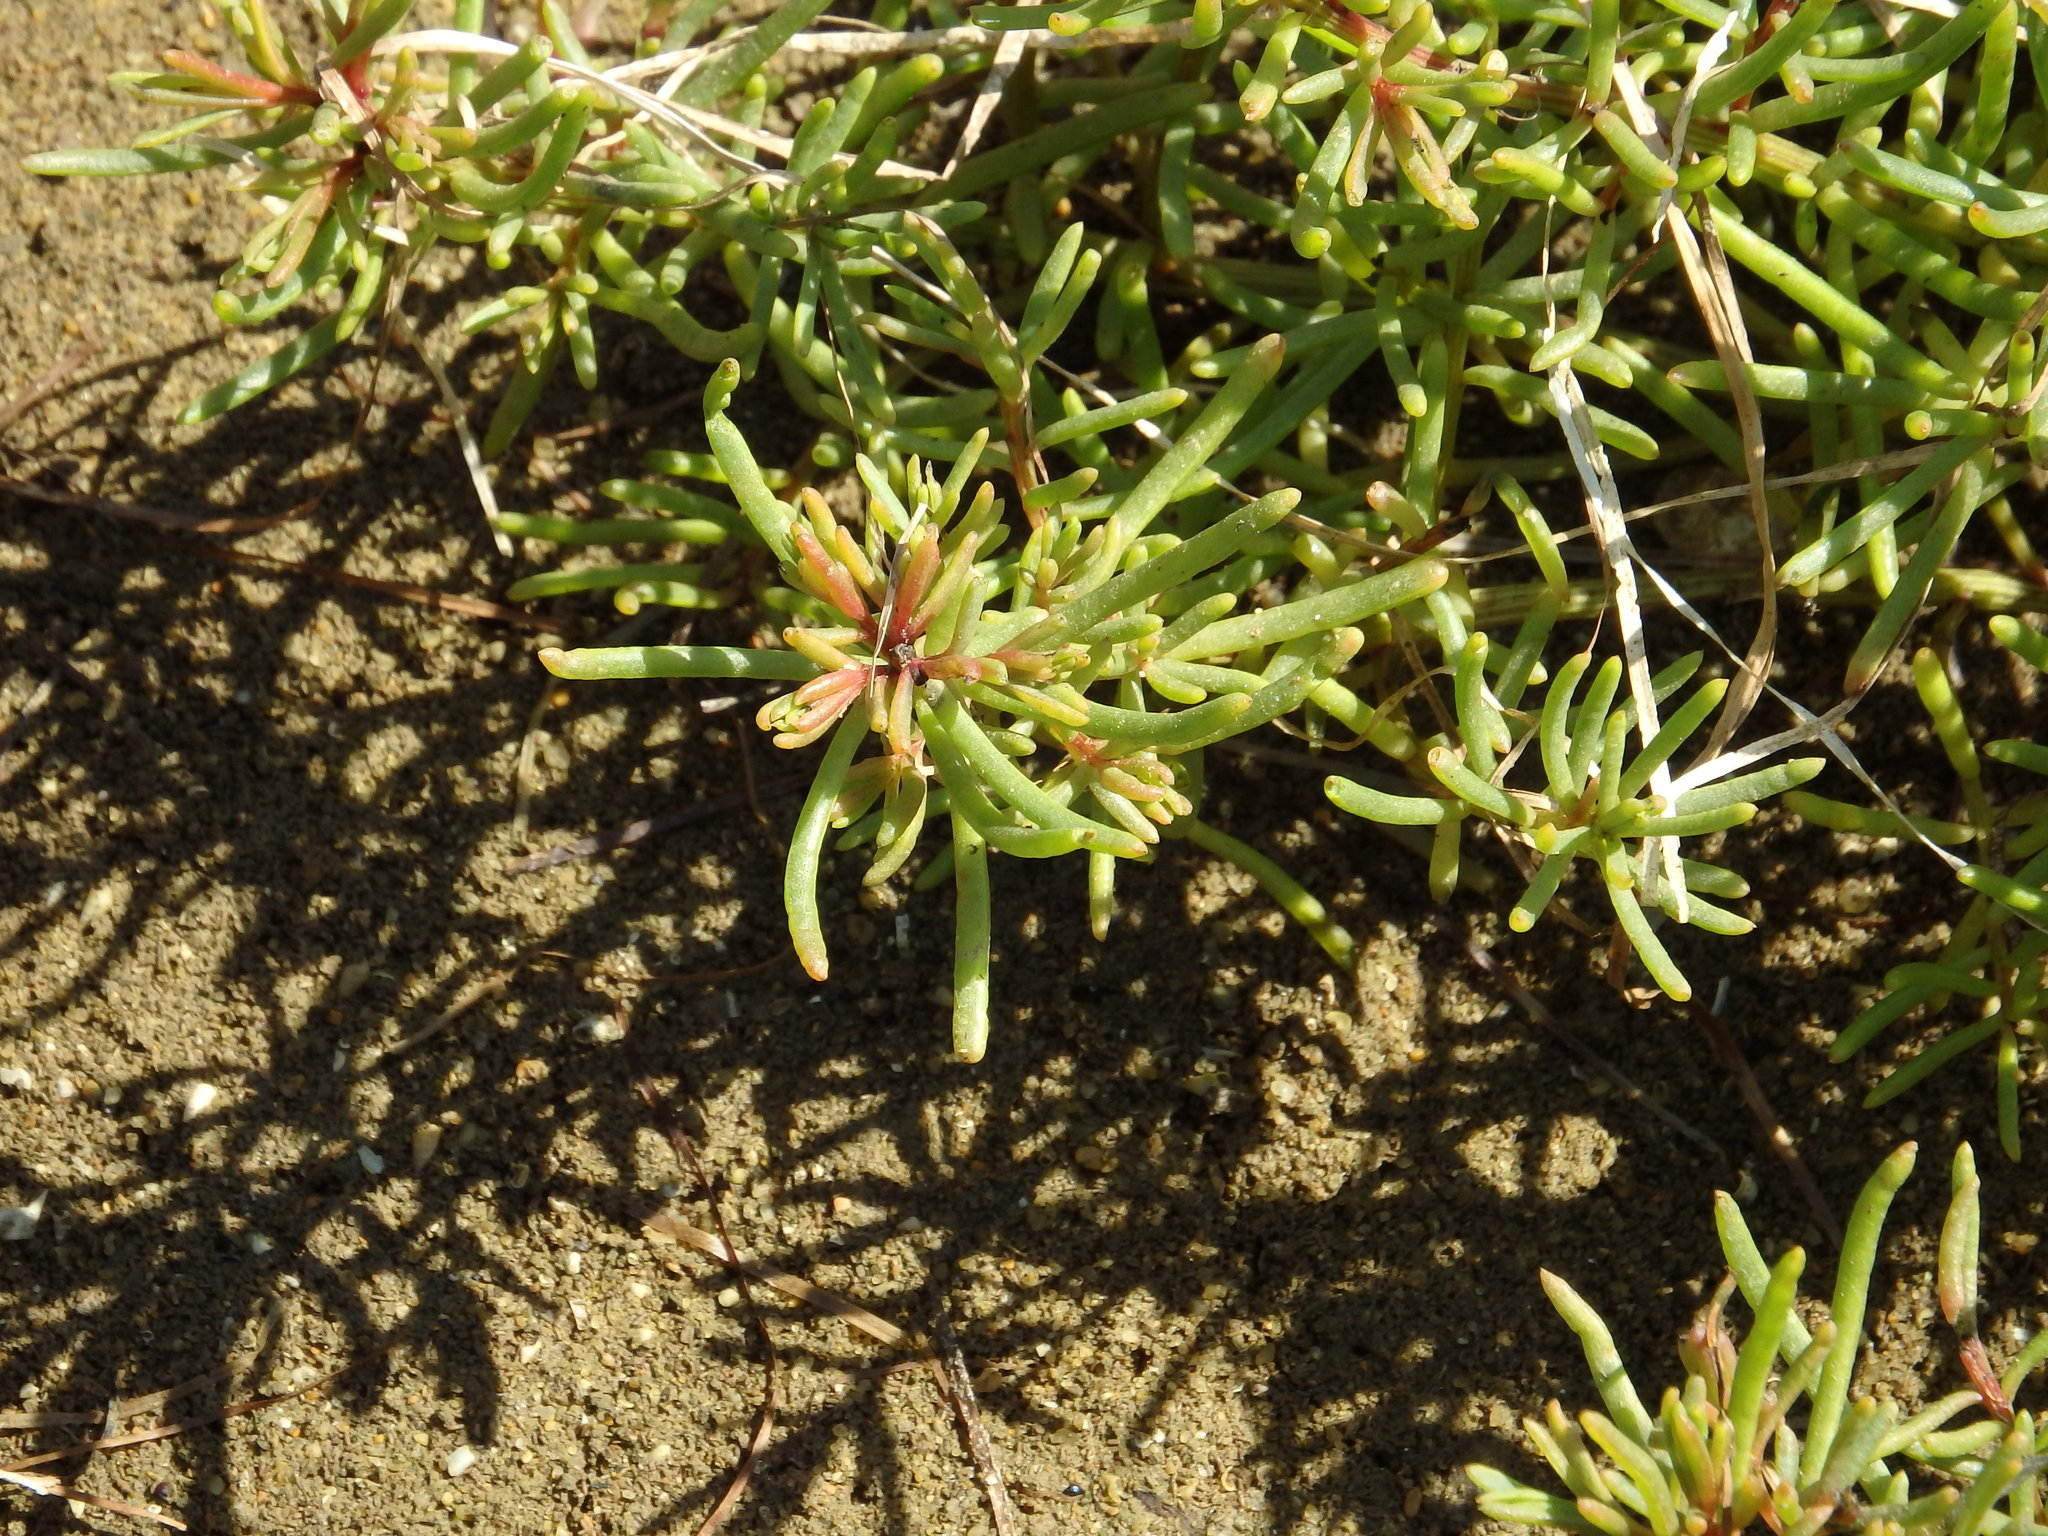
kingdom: Plantae
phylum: Tracheophyta
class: Magnoliopsida
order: Caryophyllales
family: Amaranthaceae
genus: Suaeda
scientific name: Suaeda maritima
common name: Annual sea-blite
